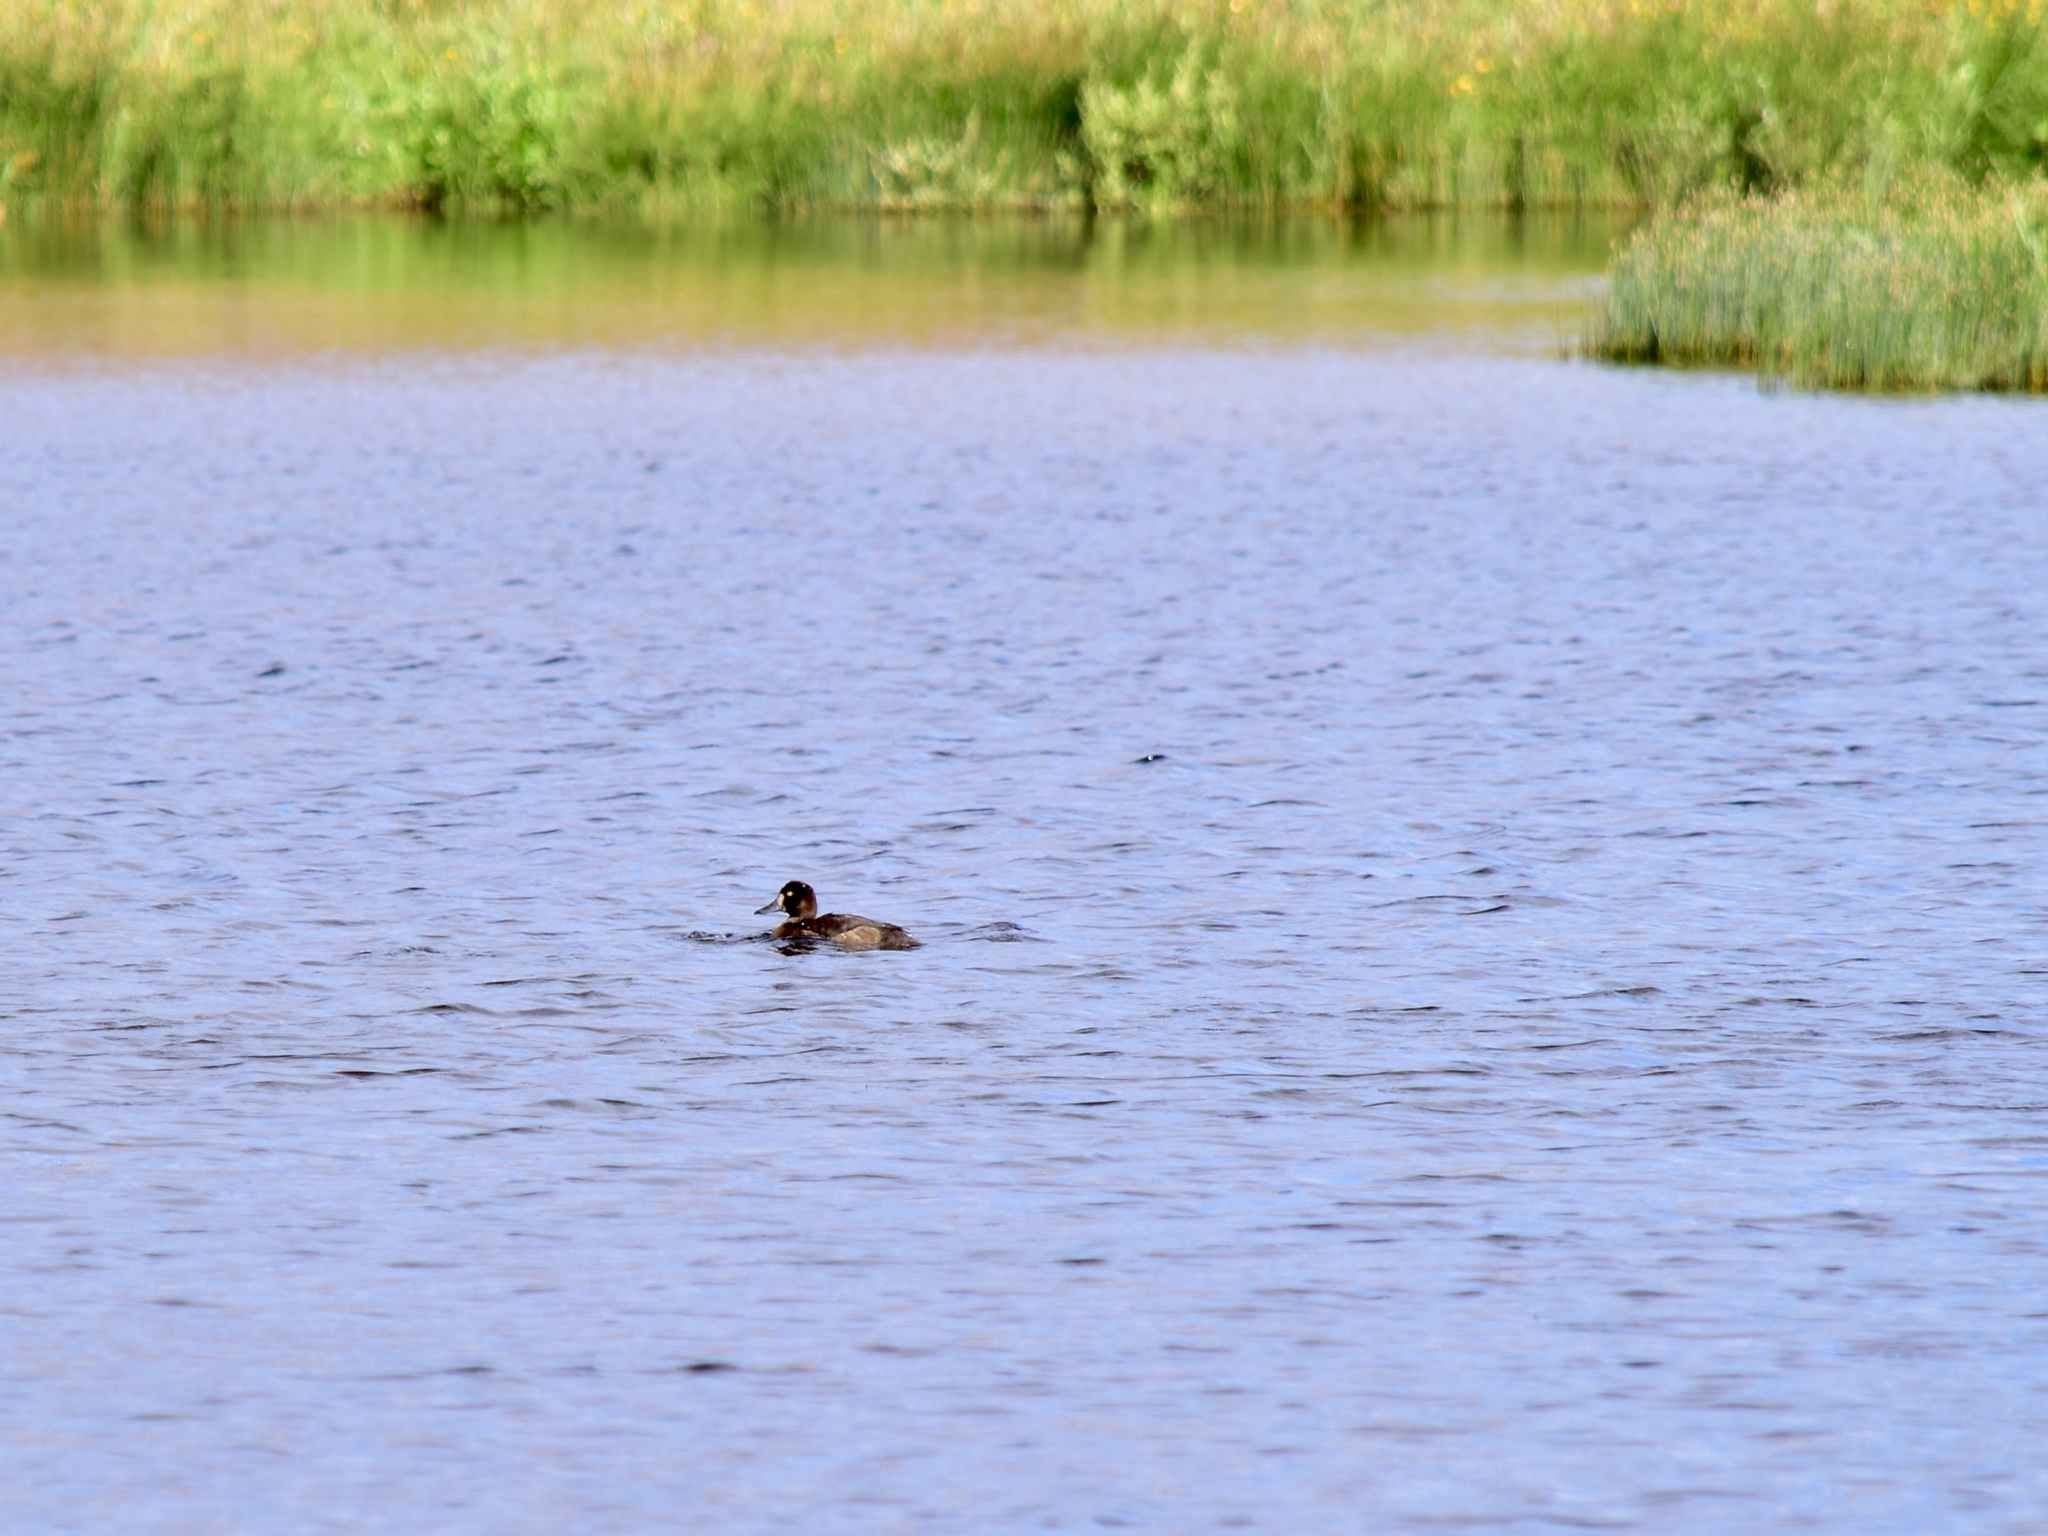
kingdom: Animalia
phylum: Chordata
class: Aves
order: Anseriformes
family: Anatidae
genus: Aythya
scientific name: Aythya fuligula
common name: Tufted duck
